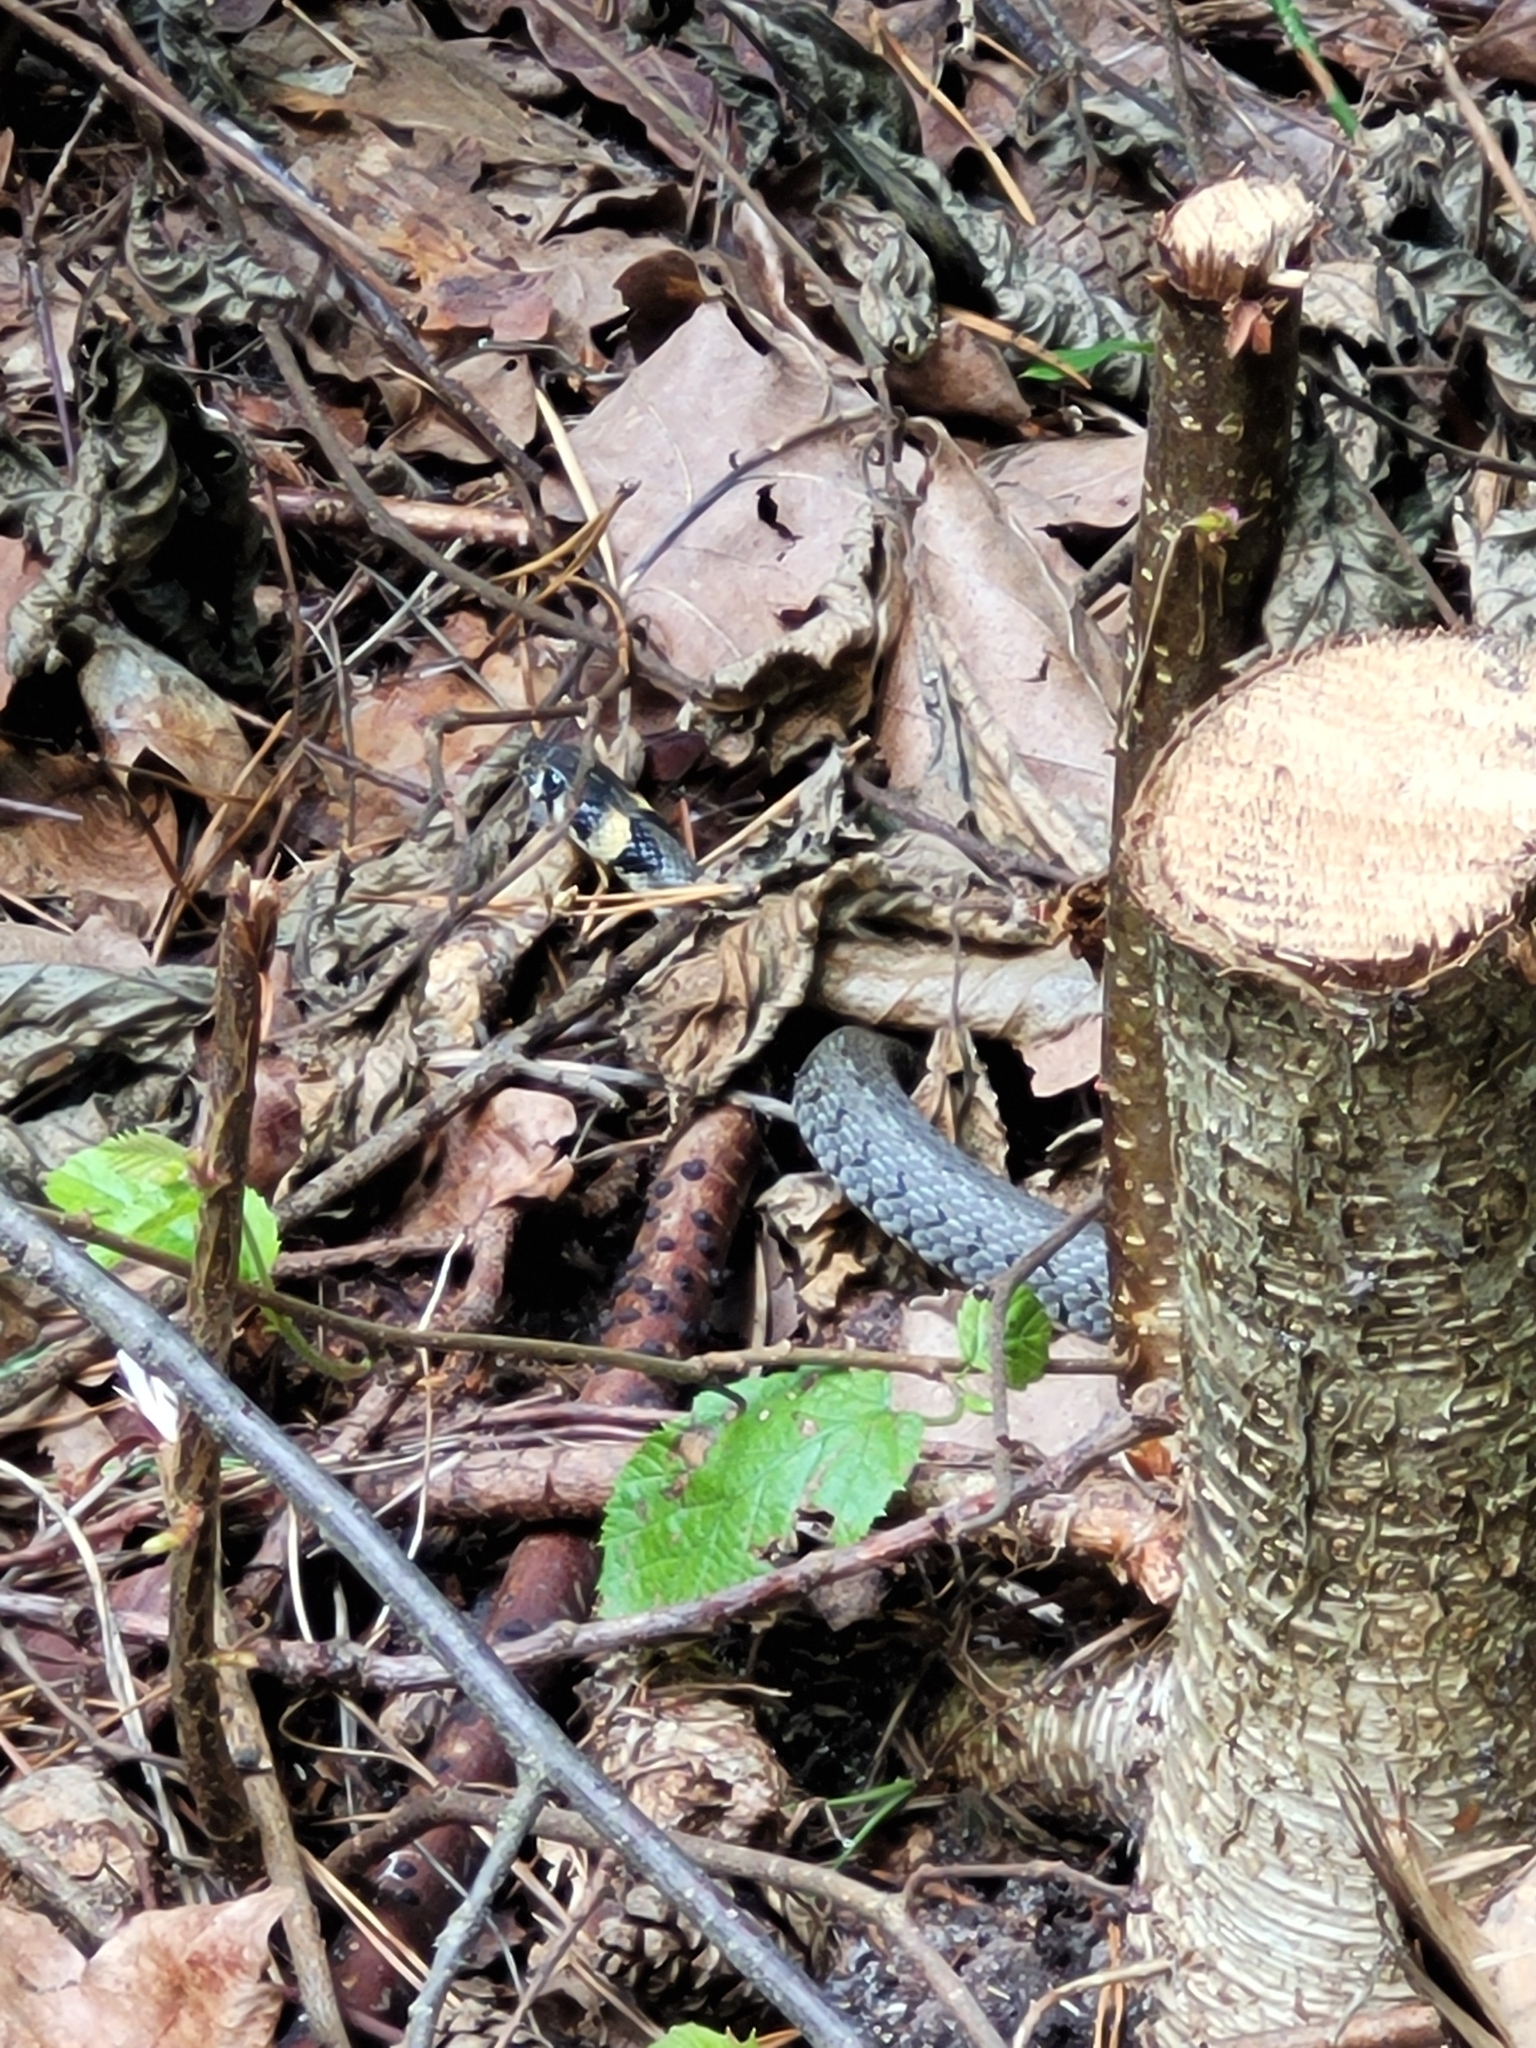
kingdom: Animalia
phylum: Chordata
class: Squamata
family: Colubridae
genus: Natrix
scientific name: Natrix natrix
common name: Grass snake
